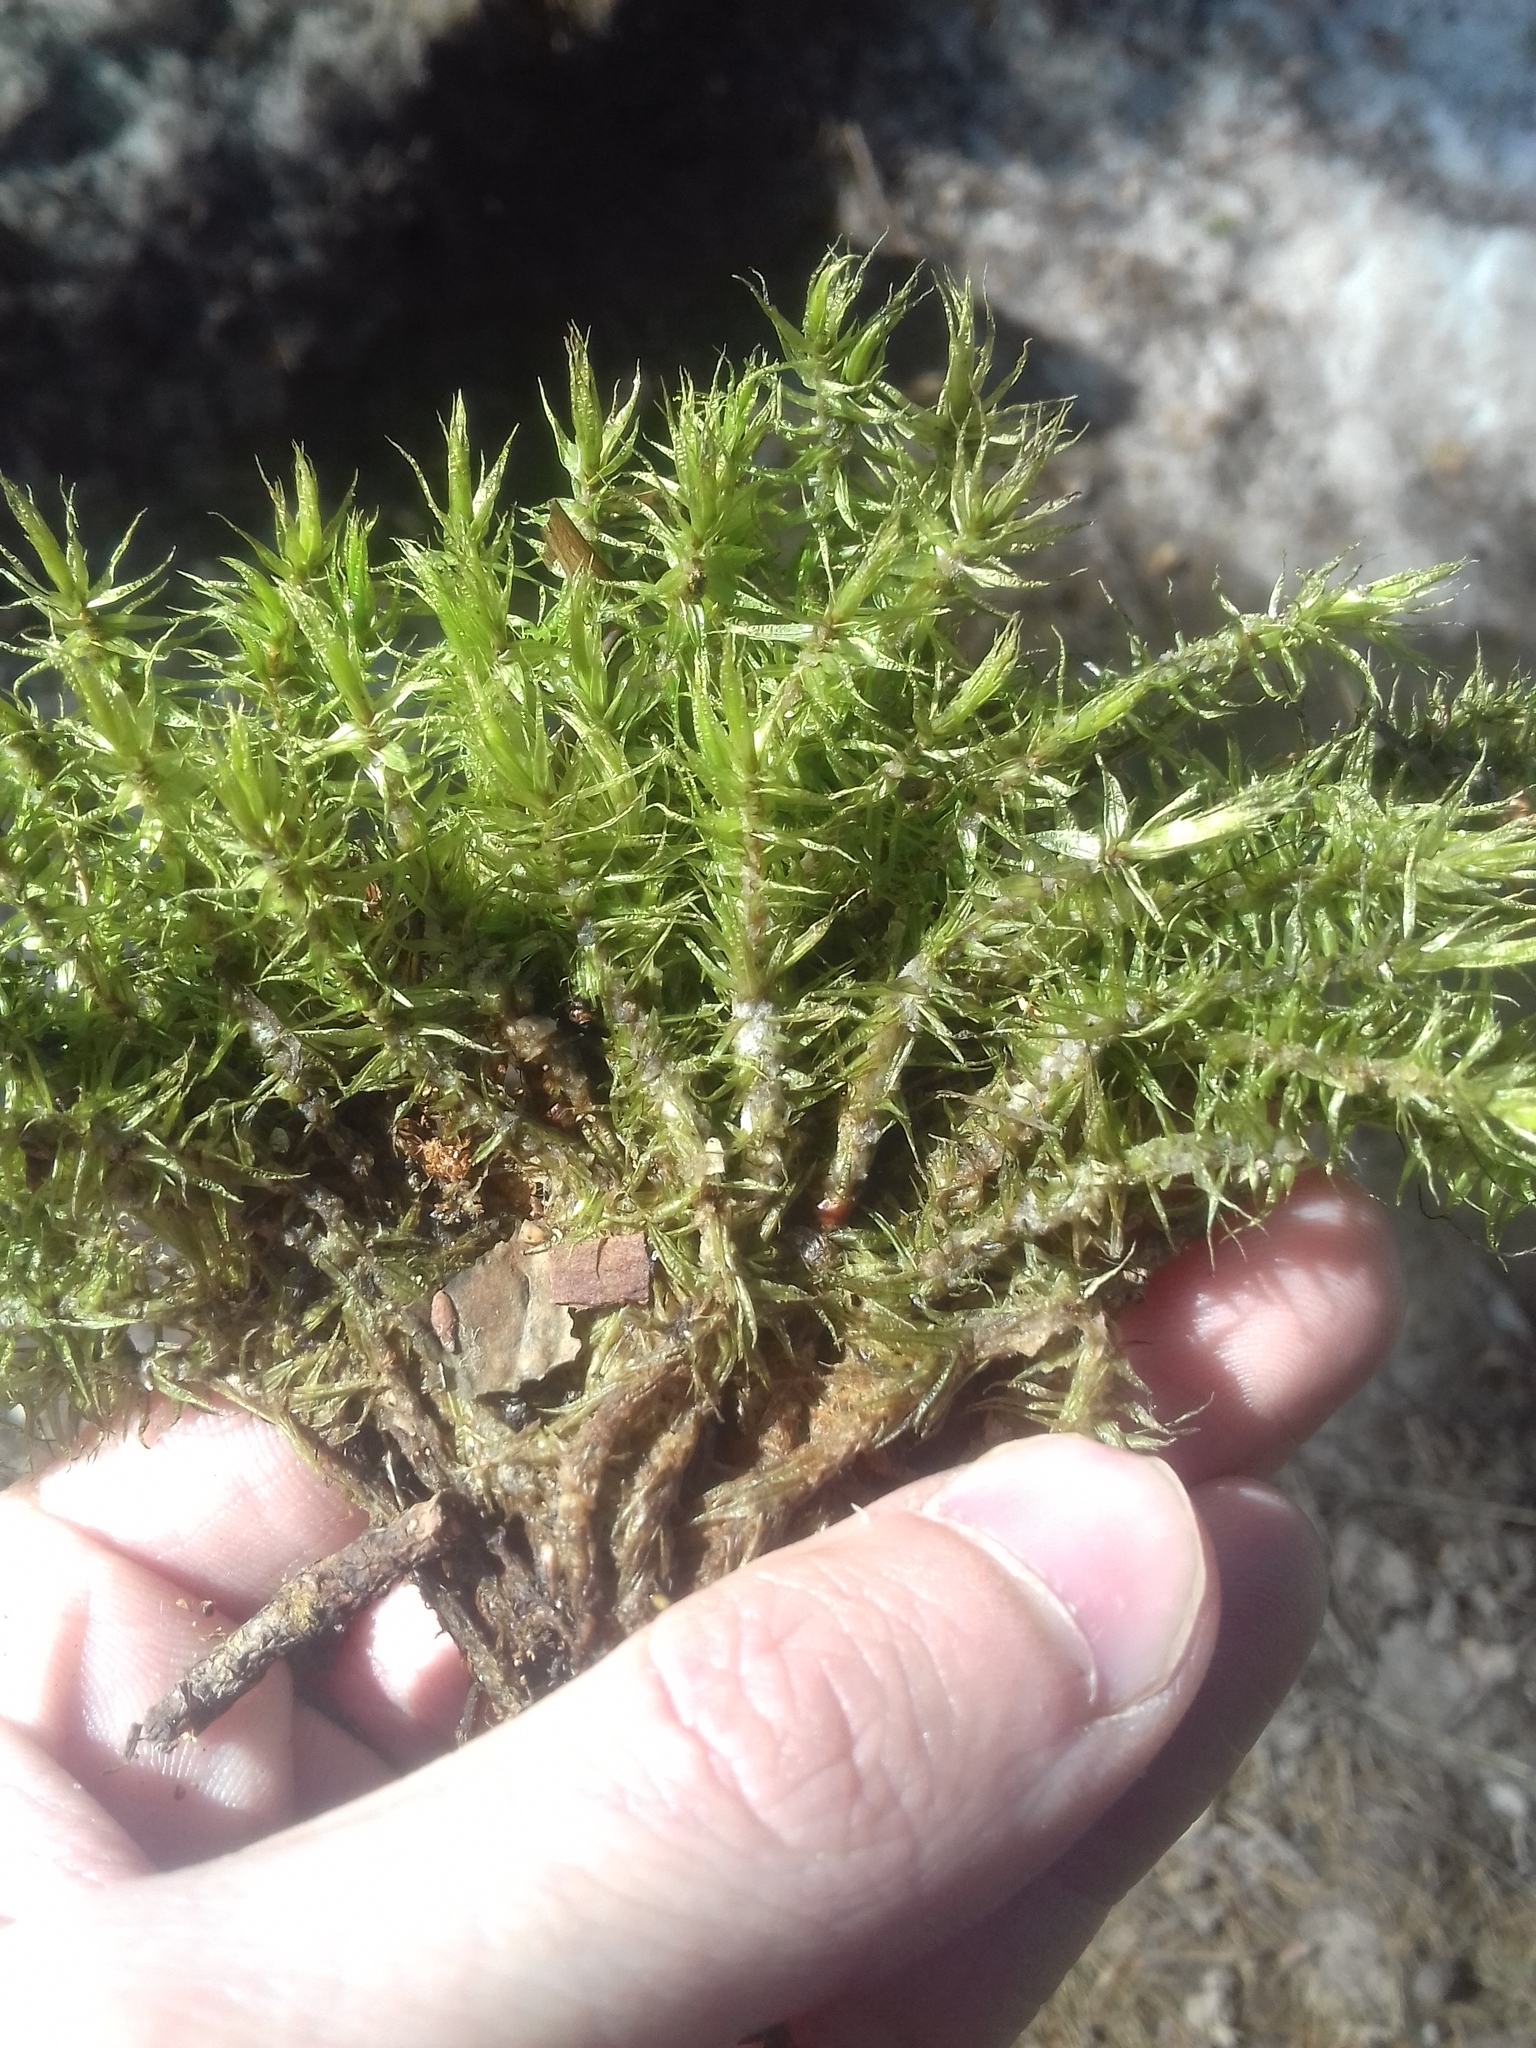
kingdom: Plantae
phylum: Bryophyta
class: Bryopsida
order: Dicranales
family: Dicranaceae
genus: Dicranum
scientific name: Dicranum polysetum
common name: Rugose fork-moss
